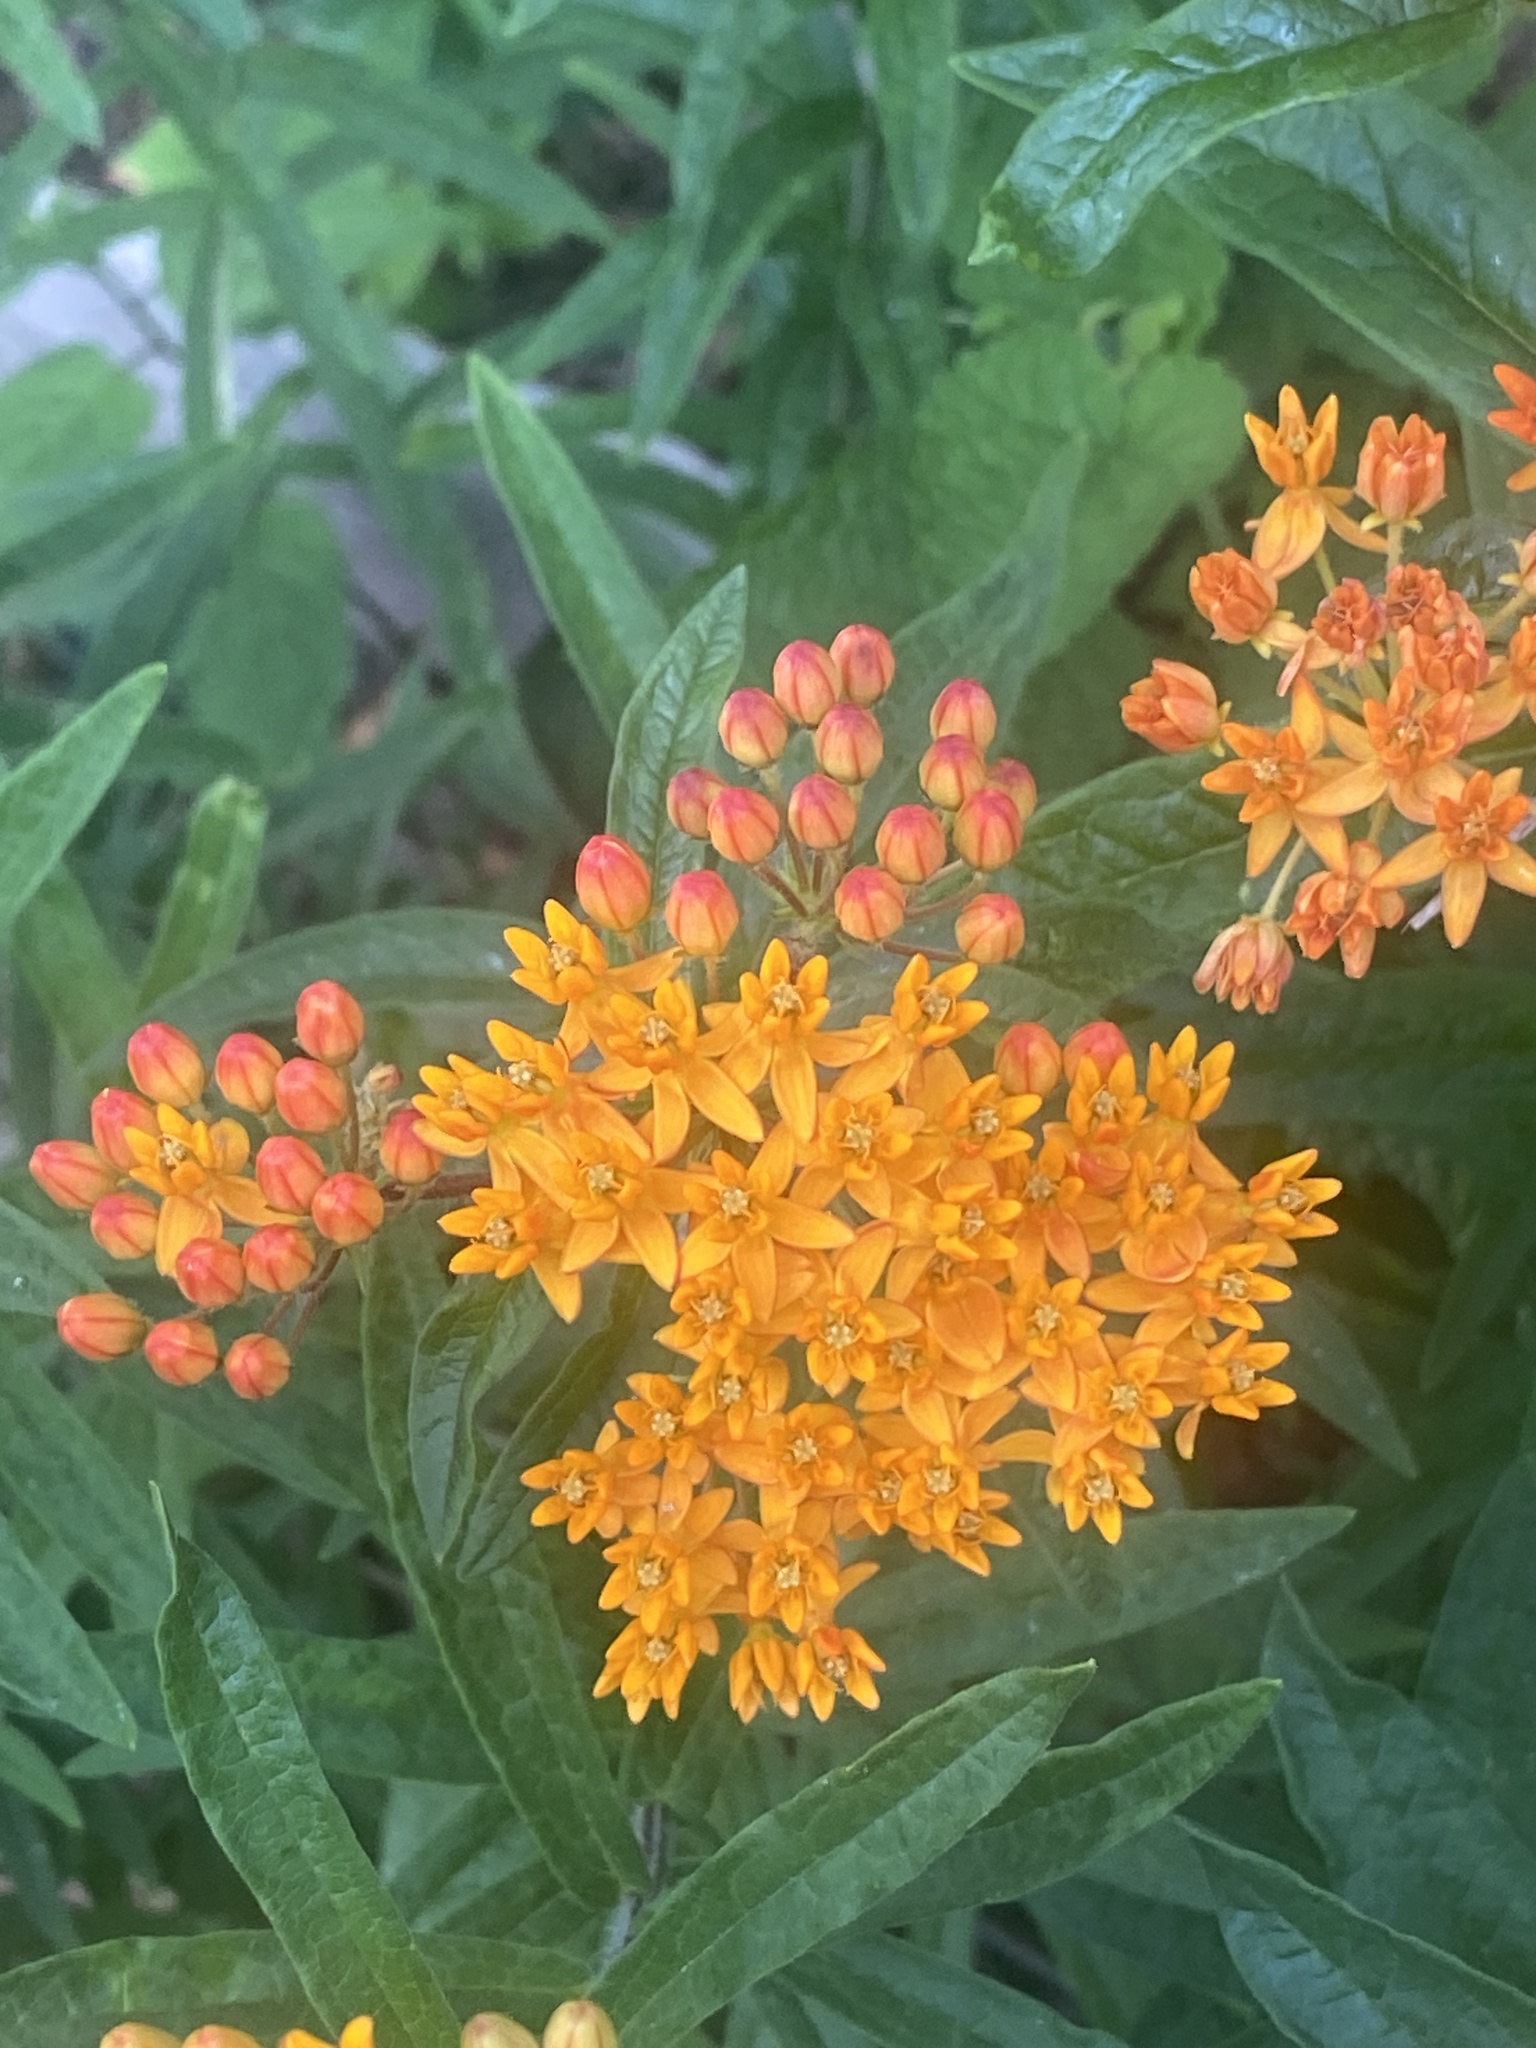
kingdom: Plantae
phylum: Tracheophyta
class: Magnoliopsida
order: Gentianales
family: Apocynaceae
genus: Asclepias
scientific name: Asclepias tuberosa
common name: Butterfly milkweed
